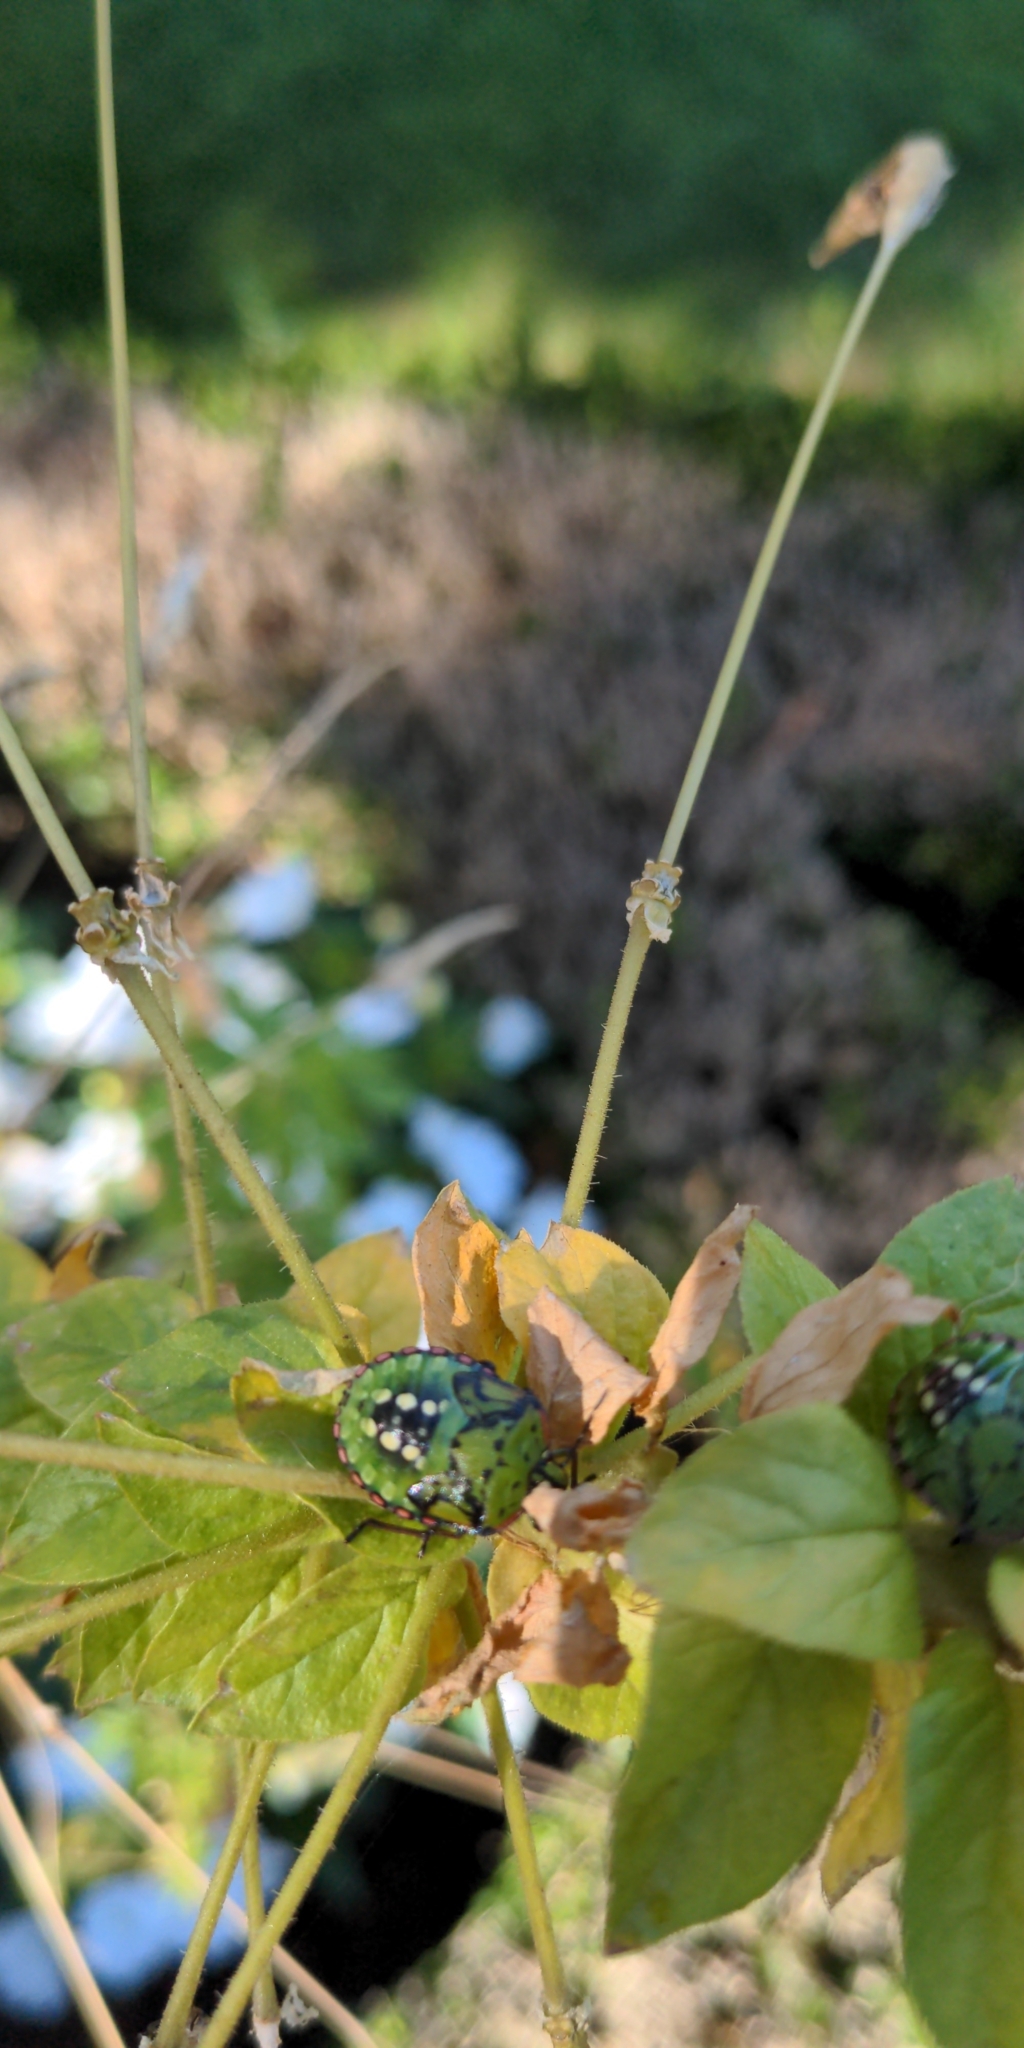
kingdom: Animalia
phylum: Arthropoda
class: Insecta
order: Hemiptera
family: Pentatomidae
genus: Nezara
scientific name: Nezara viridula
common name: Southern green stink bug
